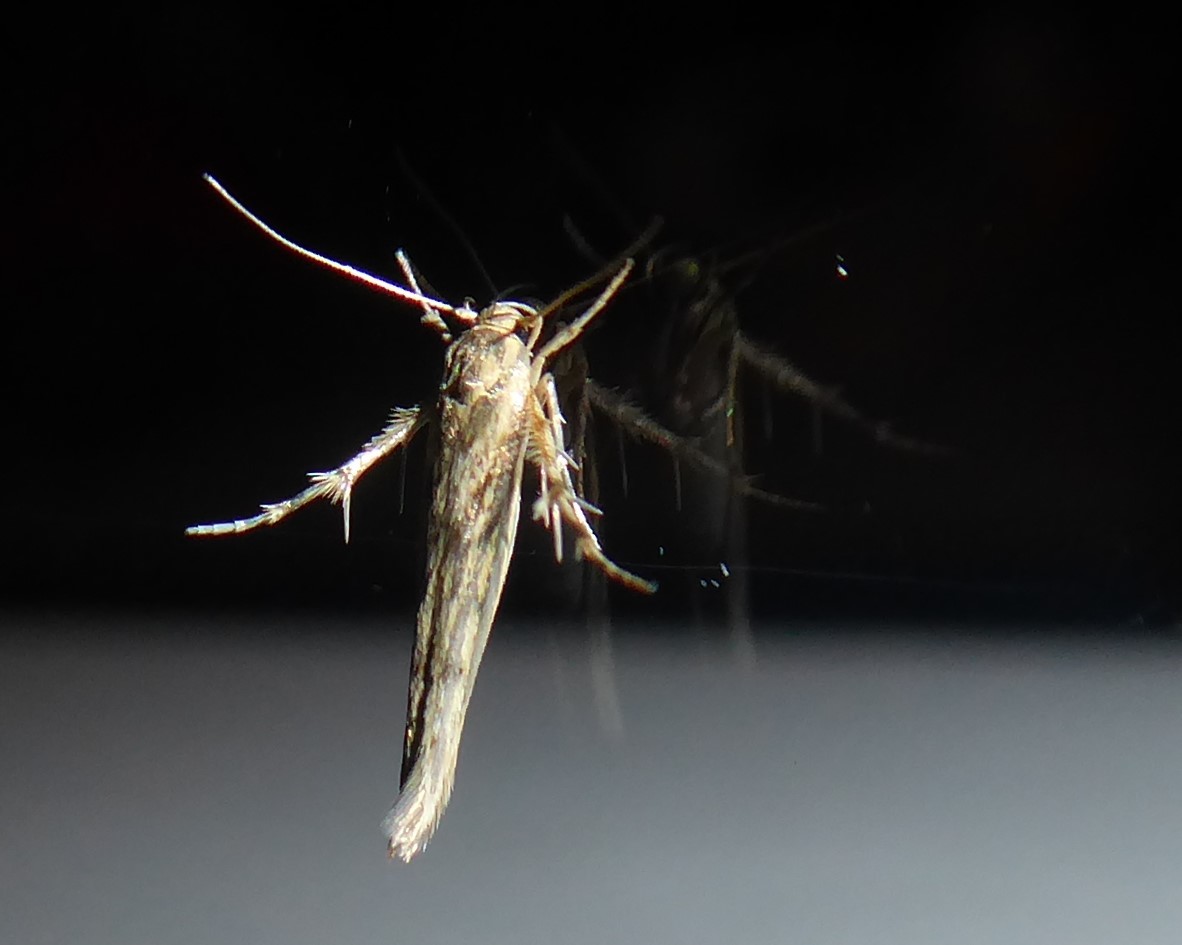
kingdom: Animalia
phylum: Arthropoda
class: Insecta
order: Lepidoptera
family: Stathmopodidae
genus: Stathmopoda
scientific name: Stathmopoda plumbiflua
